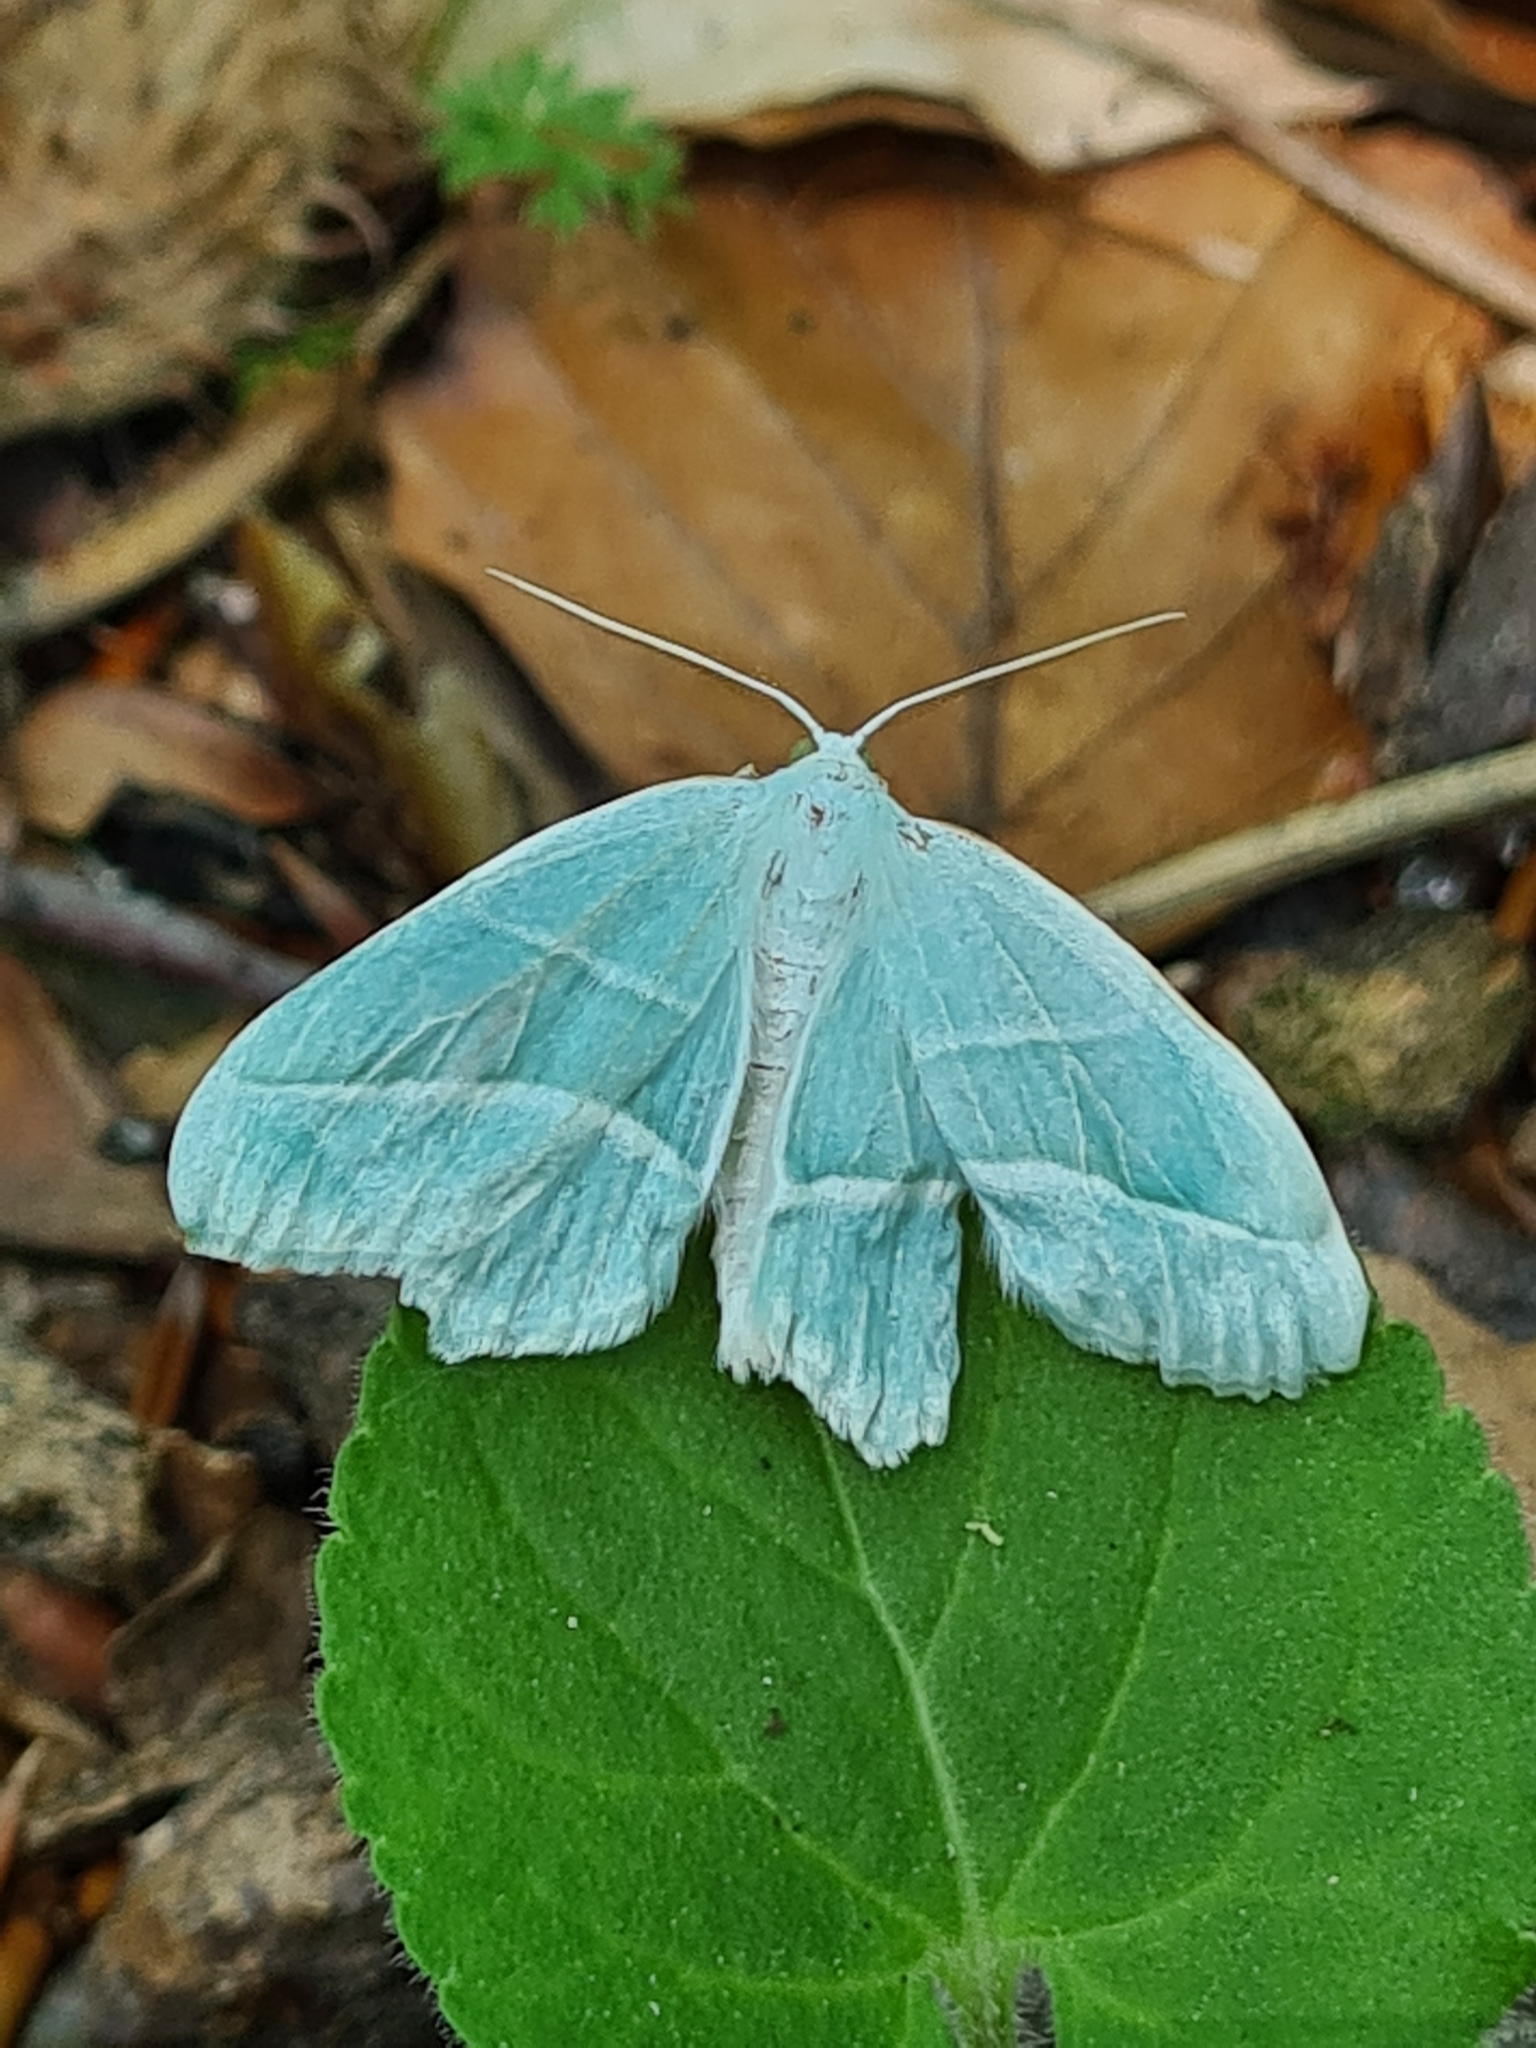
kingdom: Animalia
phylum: Arthropoda
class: Insecta
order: Lepidoptera
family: Geometridae
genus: Campaea
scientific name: Campaea margaritaria
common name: Light emerald
